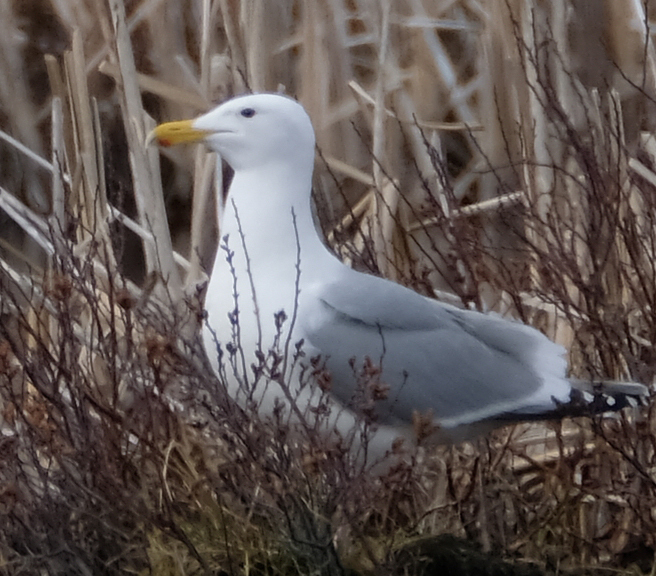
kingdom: Animalia
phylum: Chordata
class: Aves
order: Charadriiformes
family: Laridae
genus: Larus
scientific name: Larus
